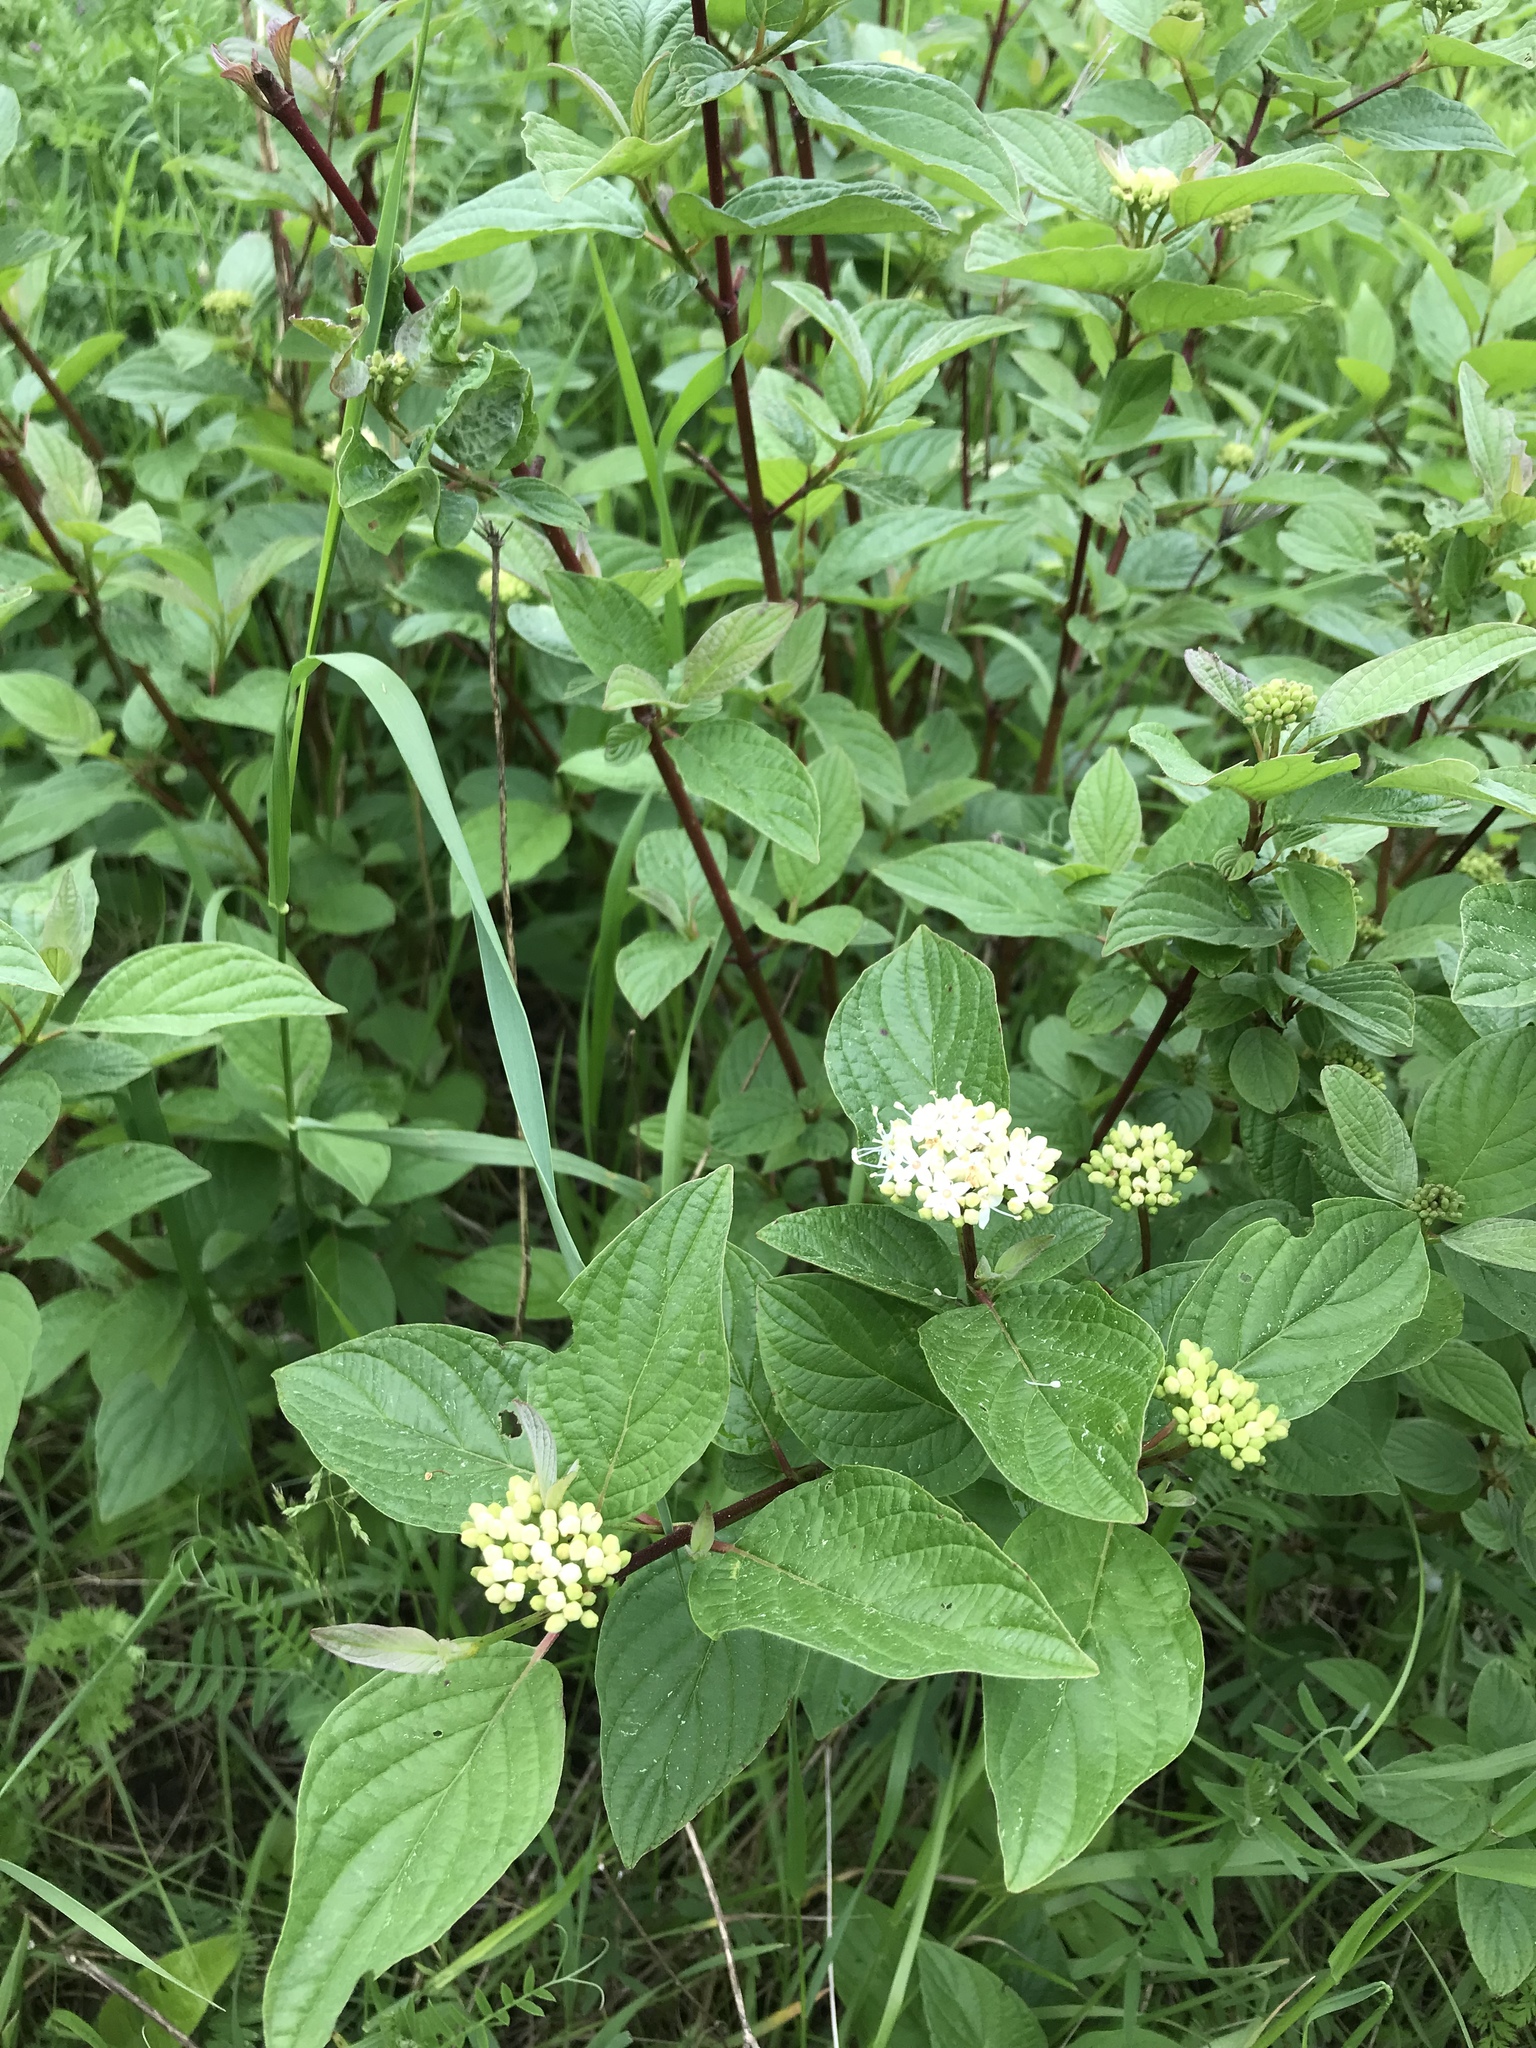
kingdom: Plantae
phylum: Tracheophyta
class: Magnoliopsida
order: Cornales
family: Cornaceae
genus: Cornus
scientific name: Cornus sericea
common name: Red-osier dogwood
